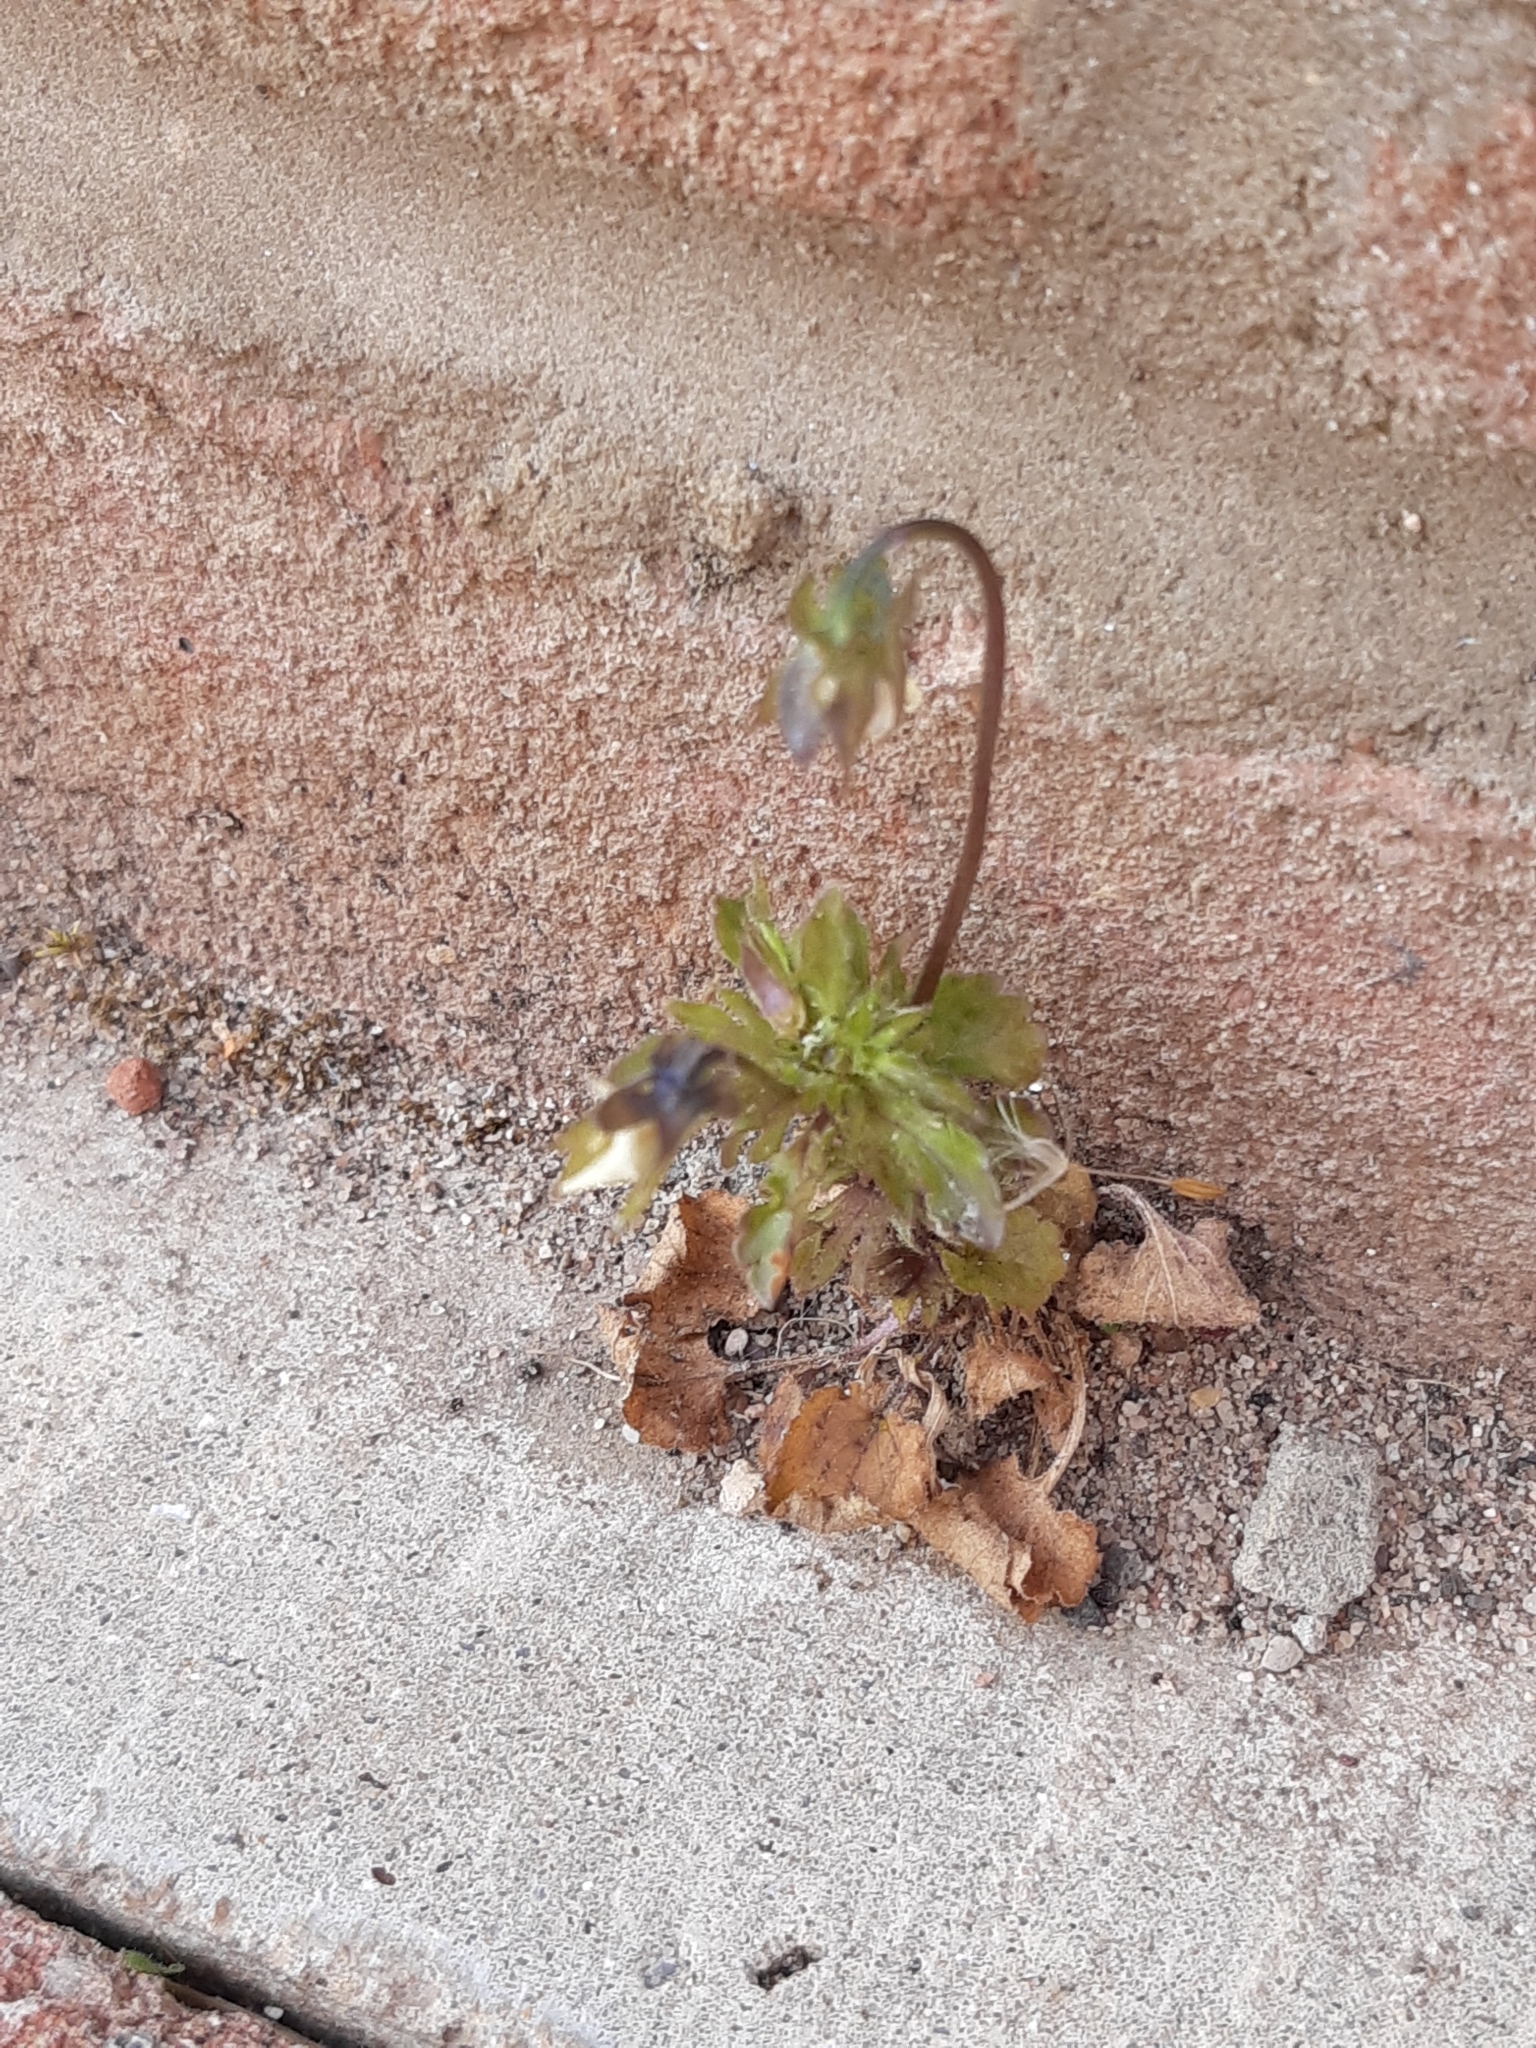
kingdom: Plantae
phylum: Tracheophyta
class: Magnoliopsida
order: Malpighiales
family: Violaceae
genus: Viola
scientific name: Viola arvensis
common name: Field pansy
